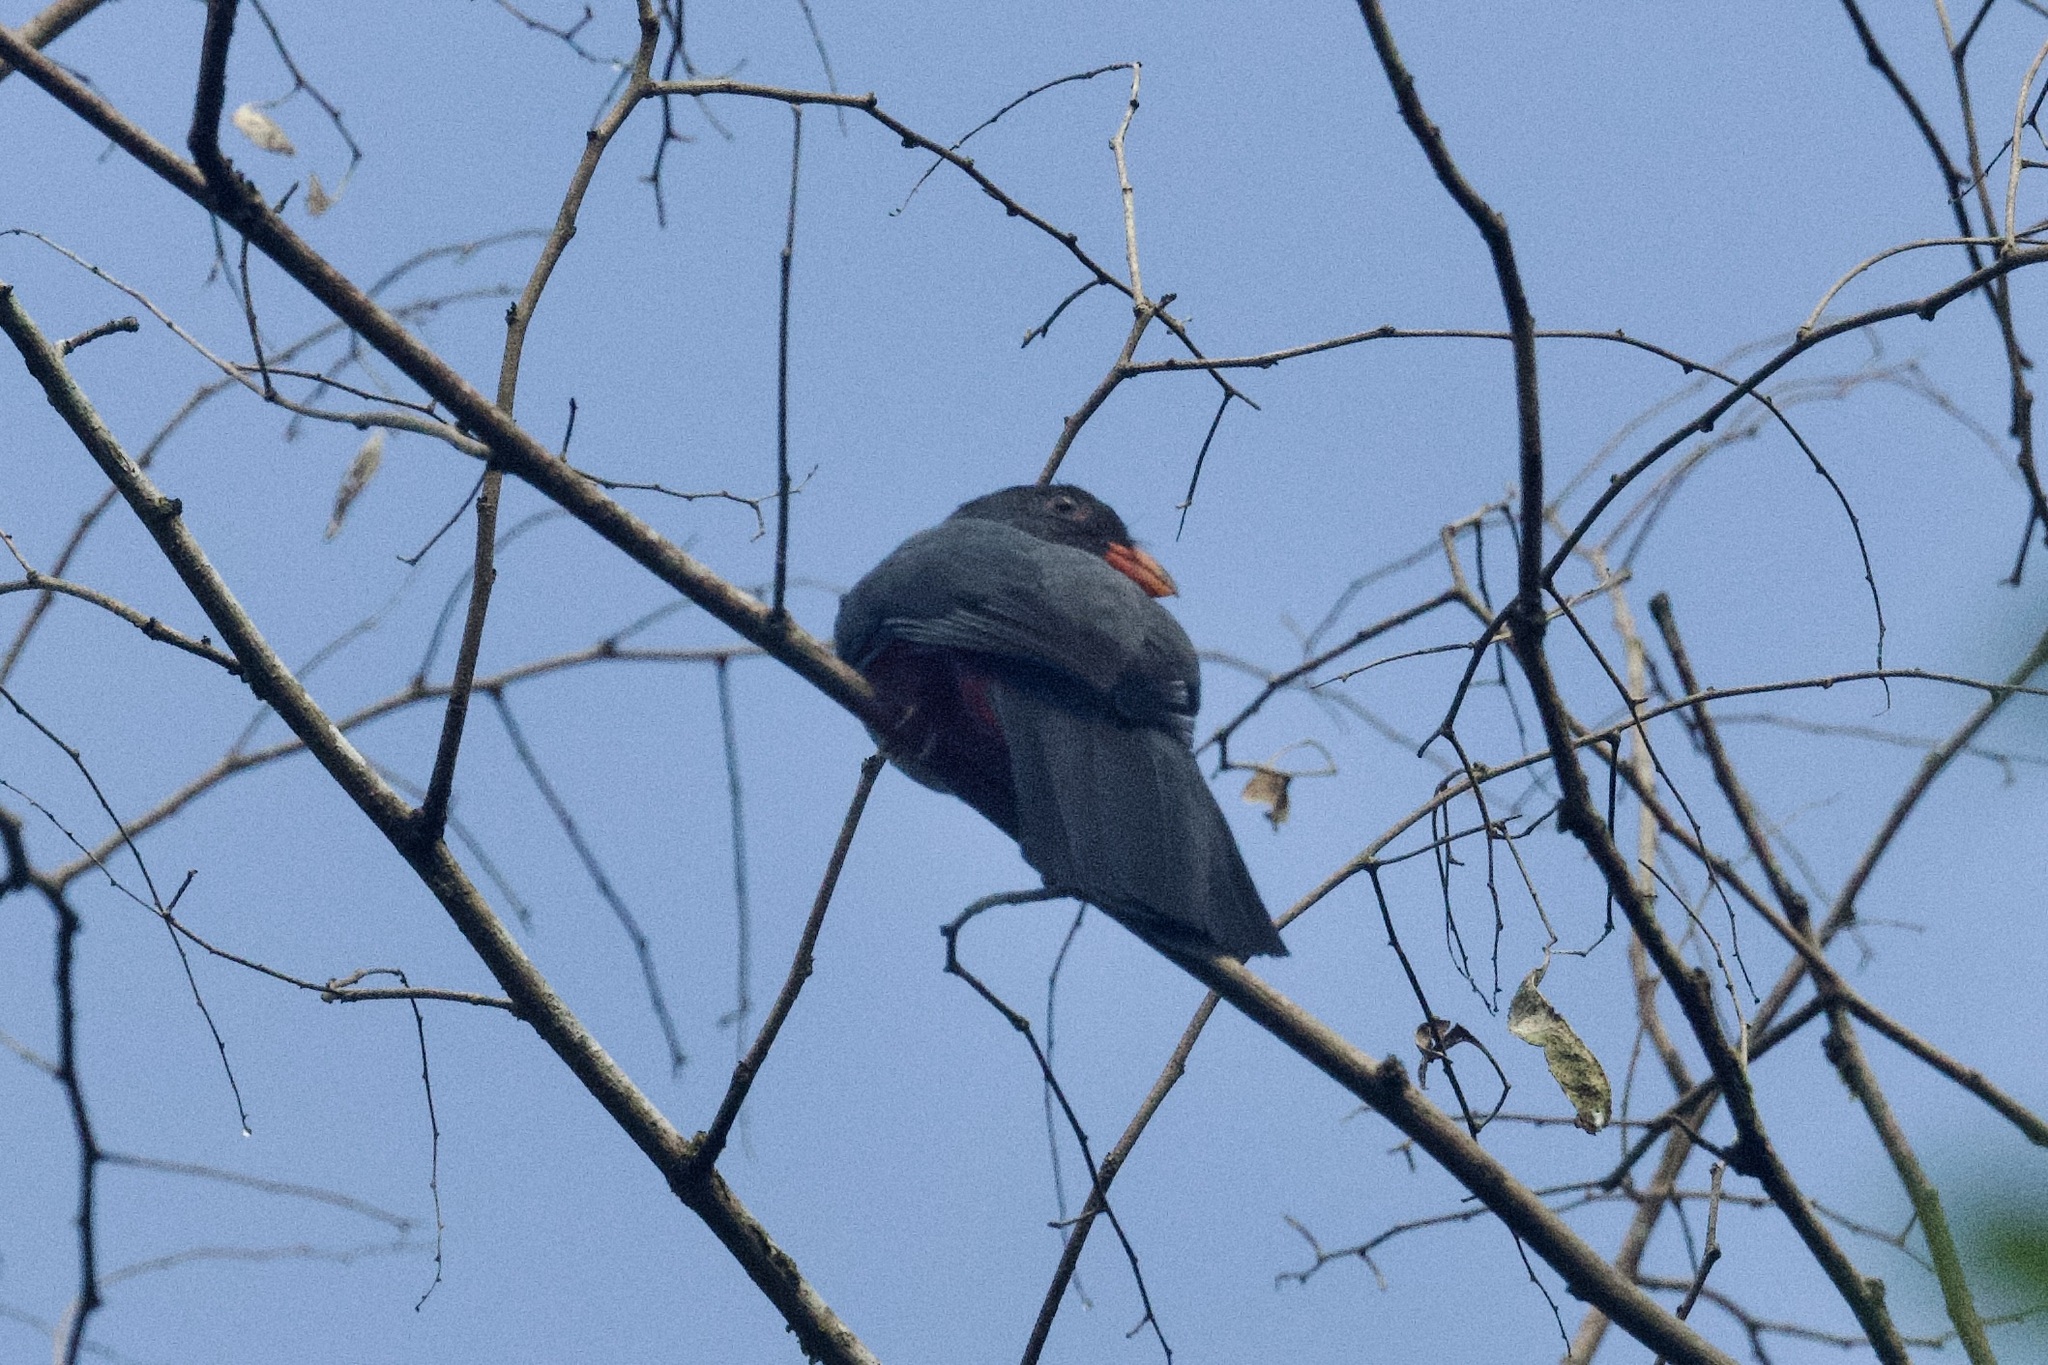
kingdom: Animalia
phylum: Chordata
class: Aves
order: Trogoniformes
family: Trogonidae
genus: Trogon
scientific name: Trogon massena
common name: Slaty-tailed trogon
